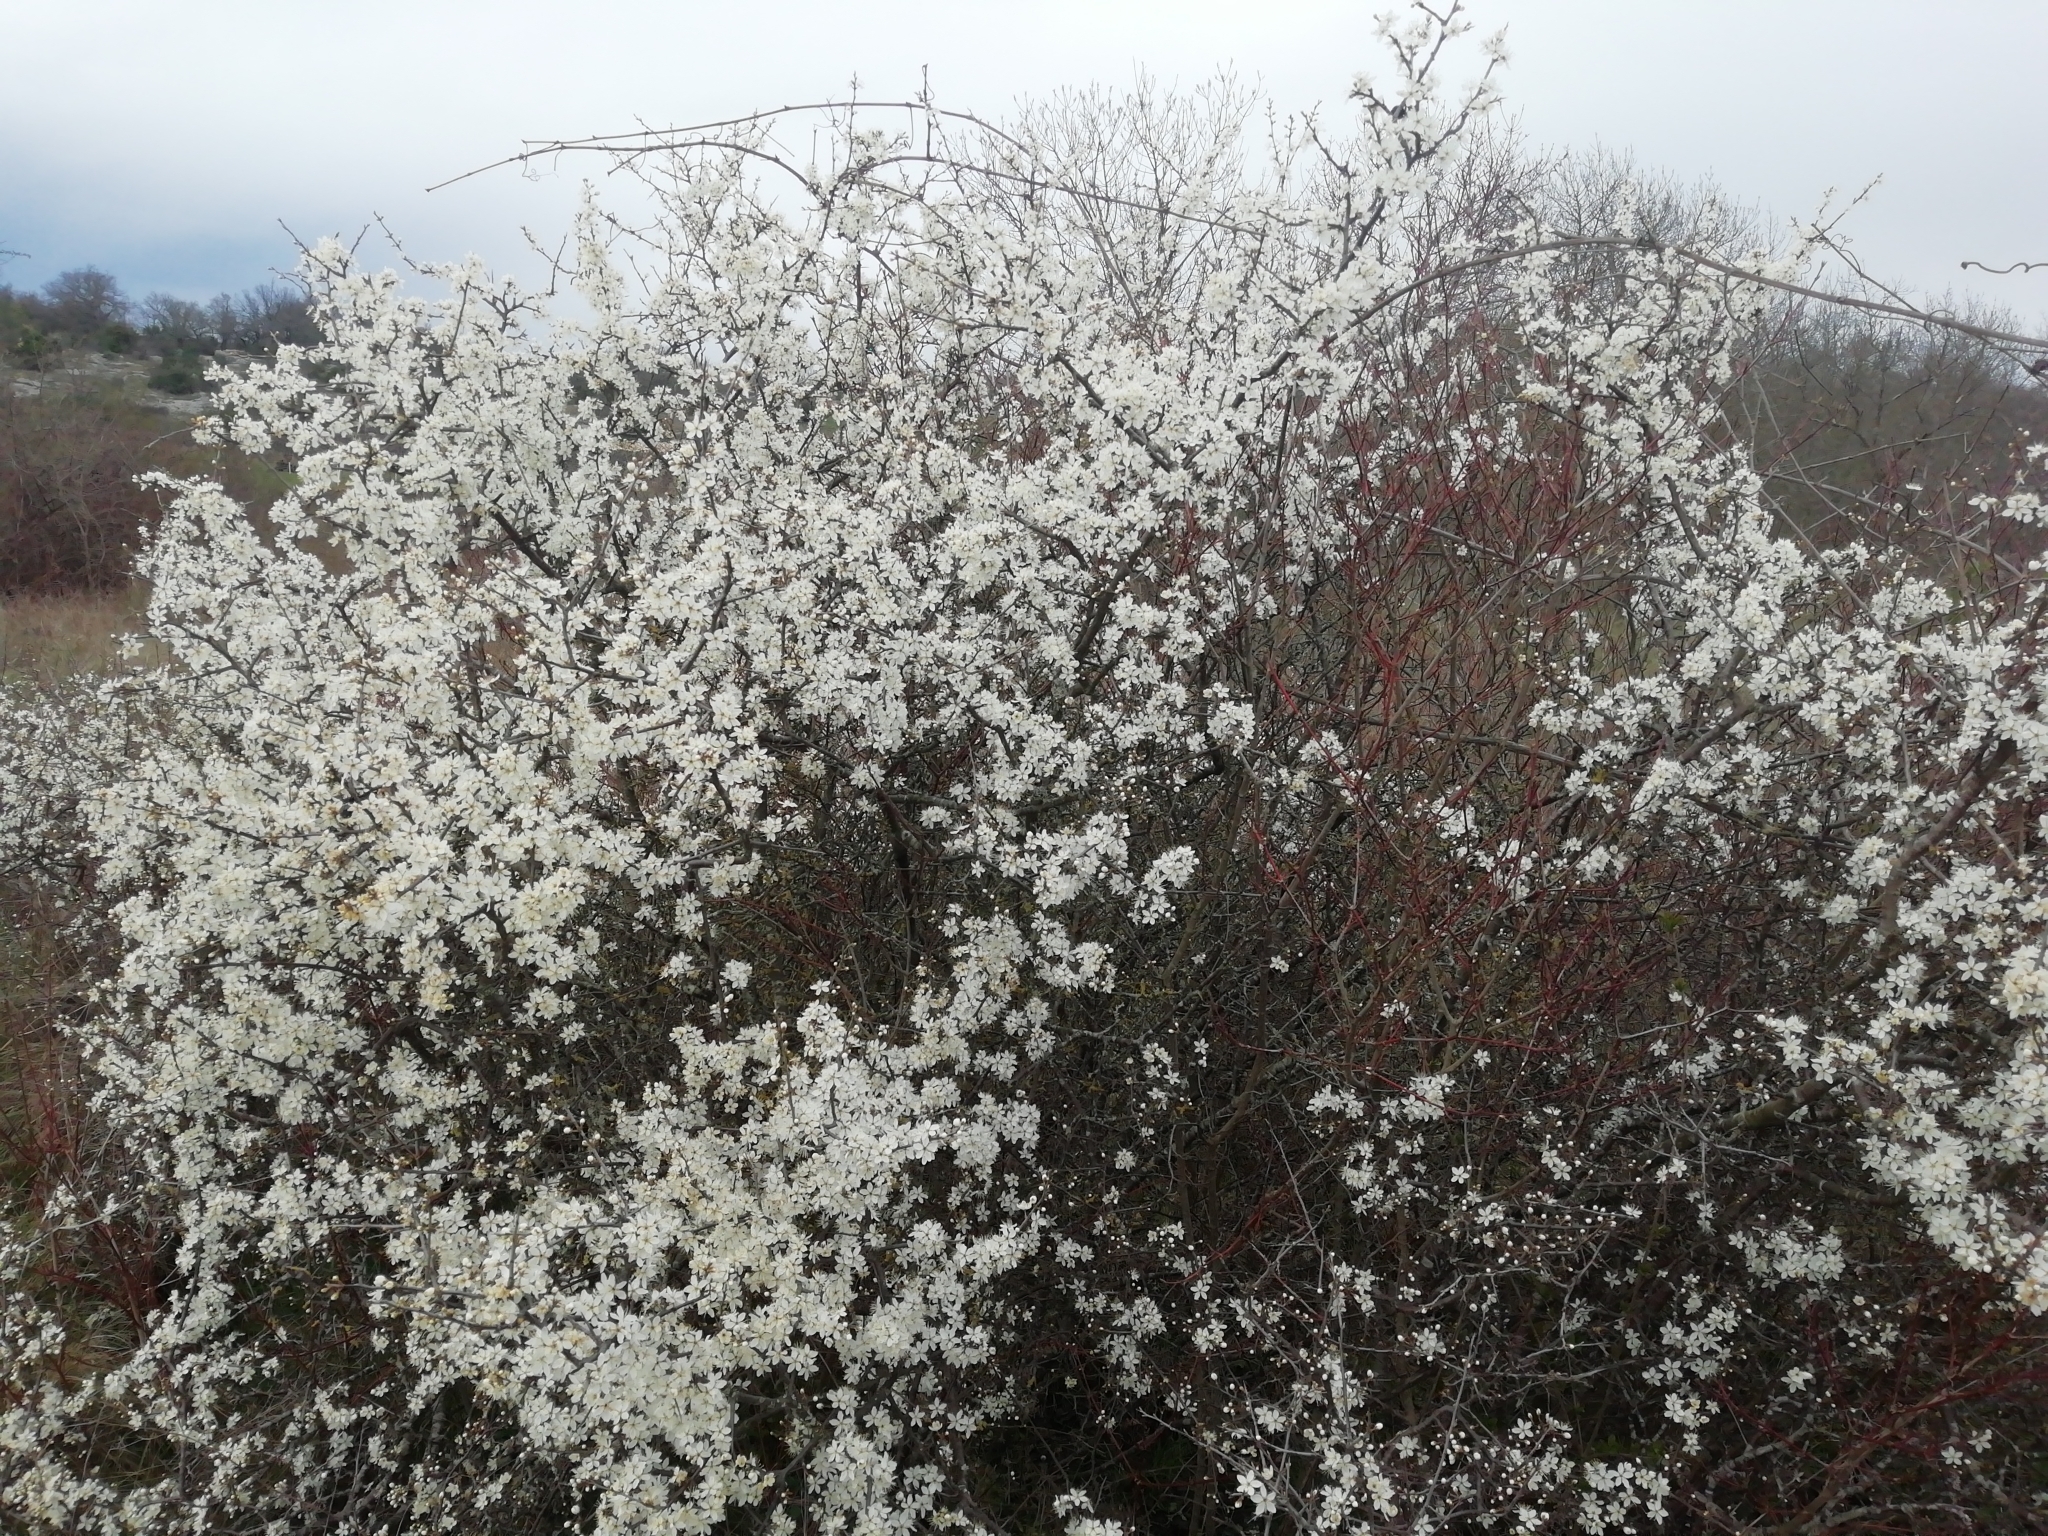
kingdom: Plantae
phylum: Tracheophyta
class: Magnoliopsida
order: Rosales
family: Rosaceae
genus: Prunus
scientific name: Prunus spinosa
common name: Blackthorn
